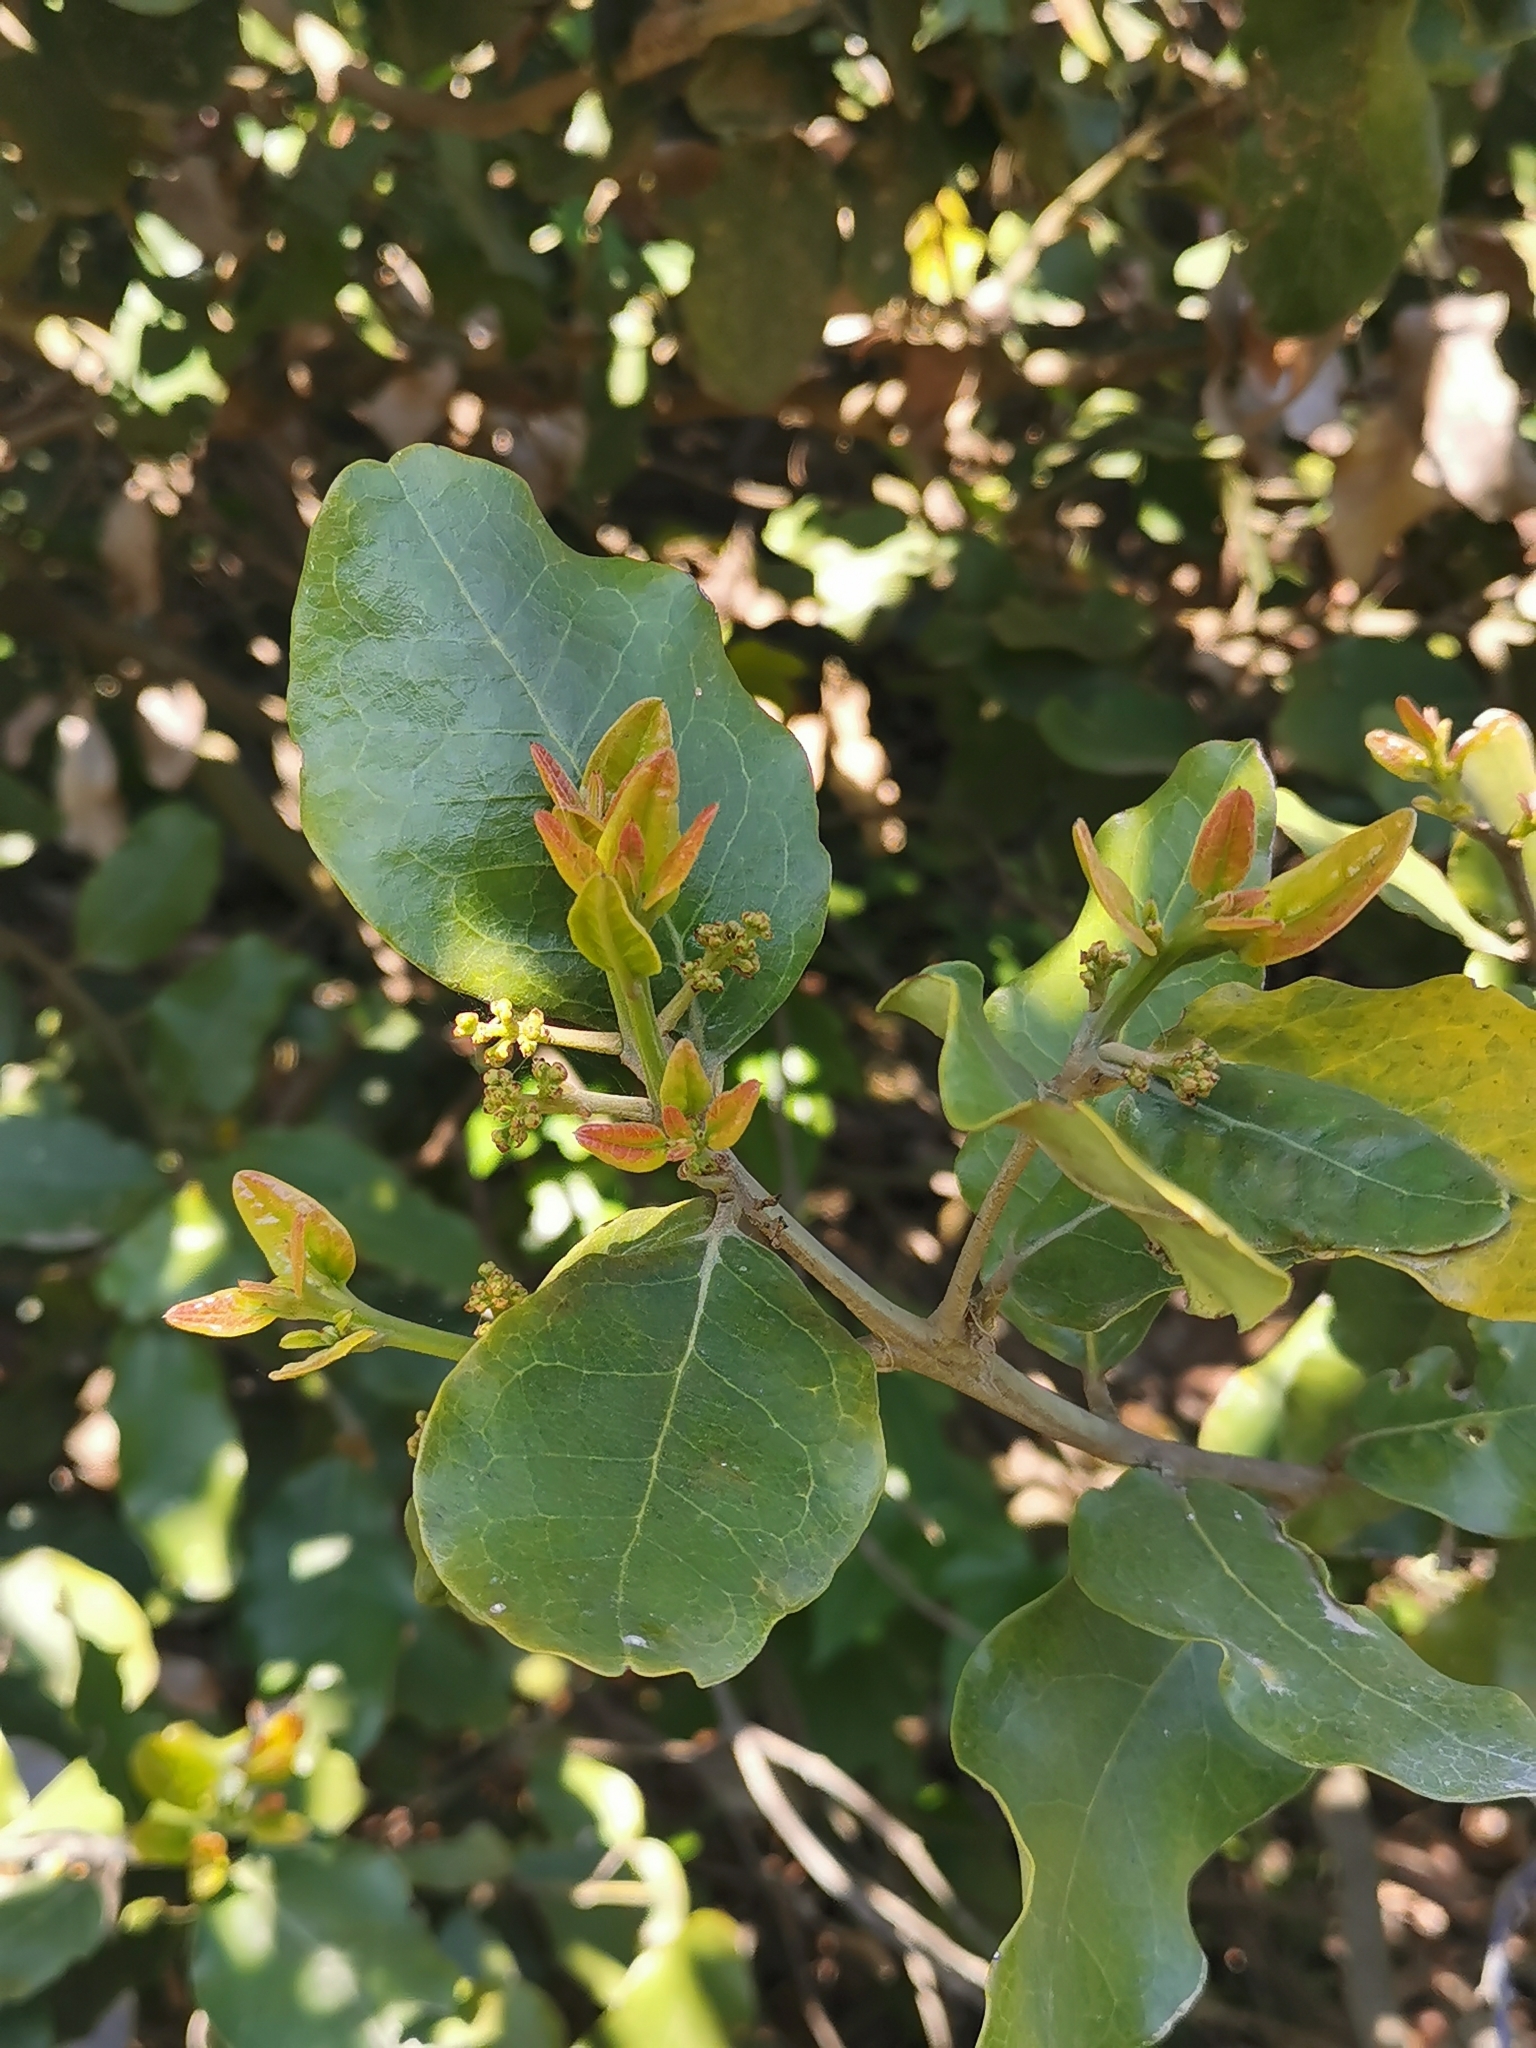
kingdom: Plantae
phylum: Tracheophyta
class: Magnoliopsida
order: Laurales
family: Lauraceae
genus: Beilschmiedia
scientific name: Beilschmiedia miersii
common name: Bellota
